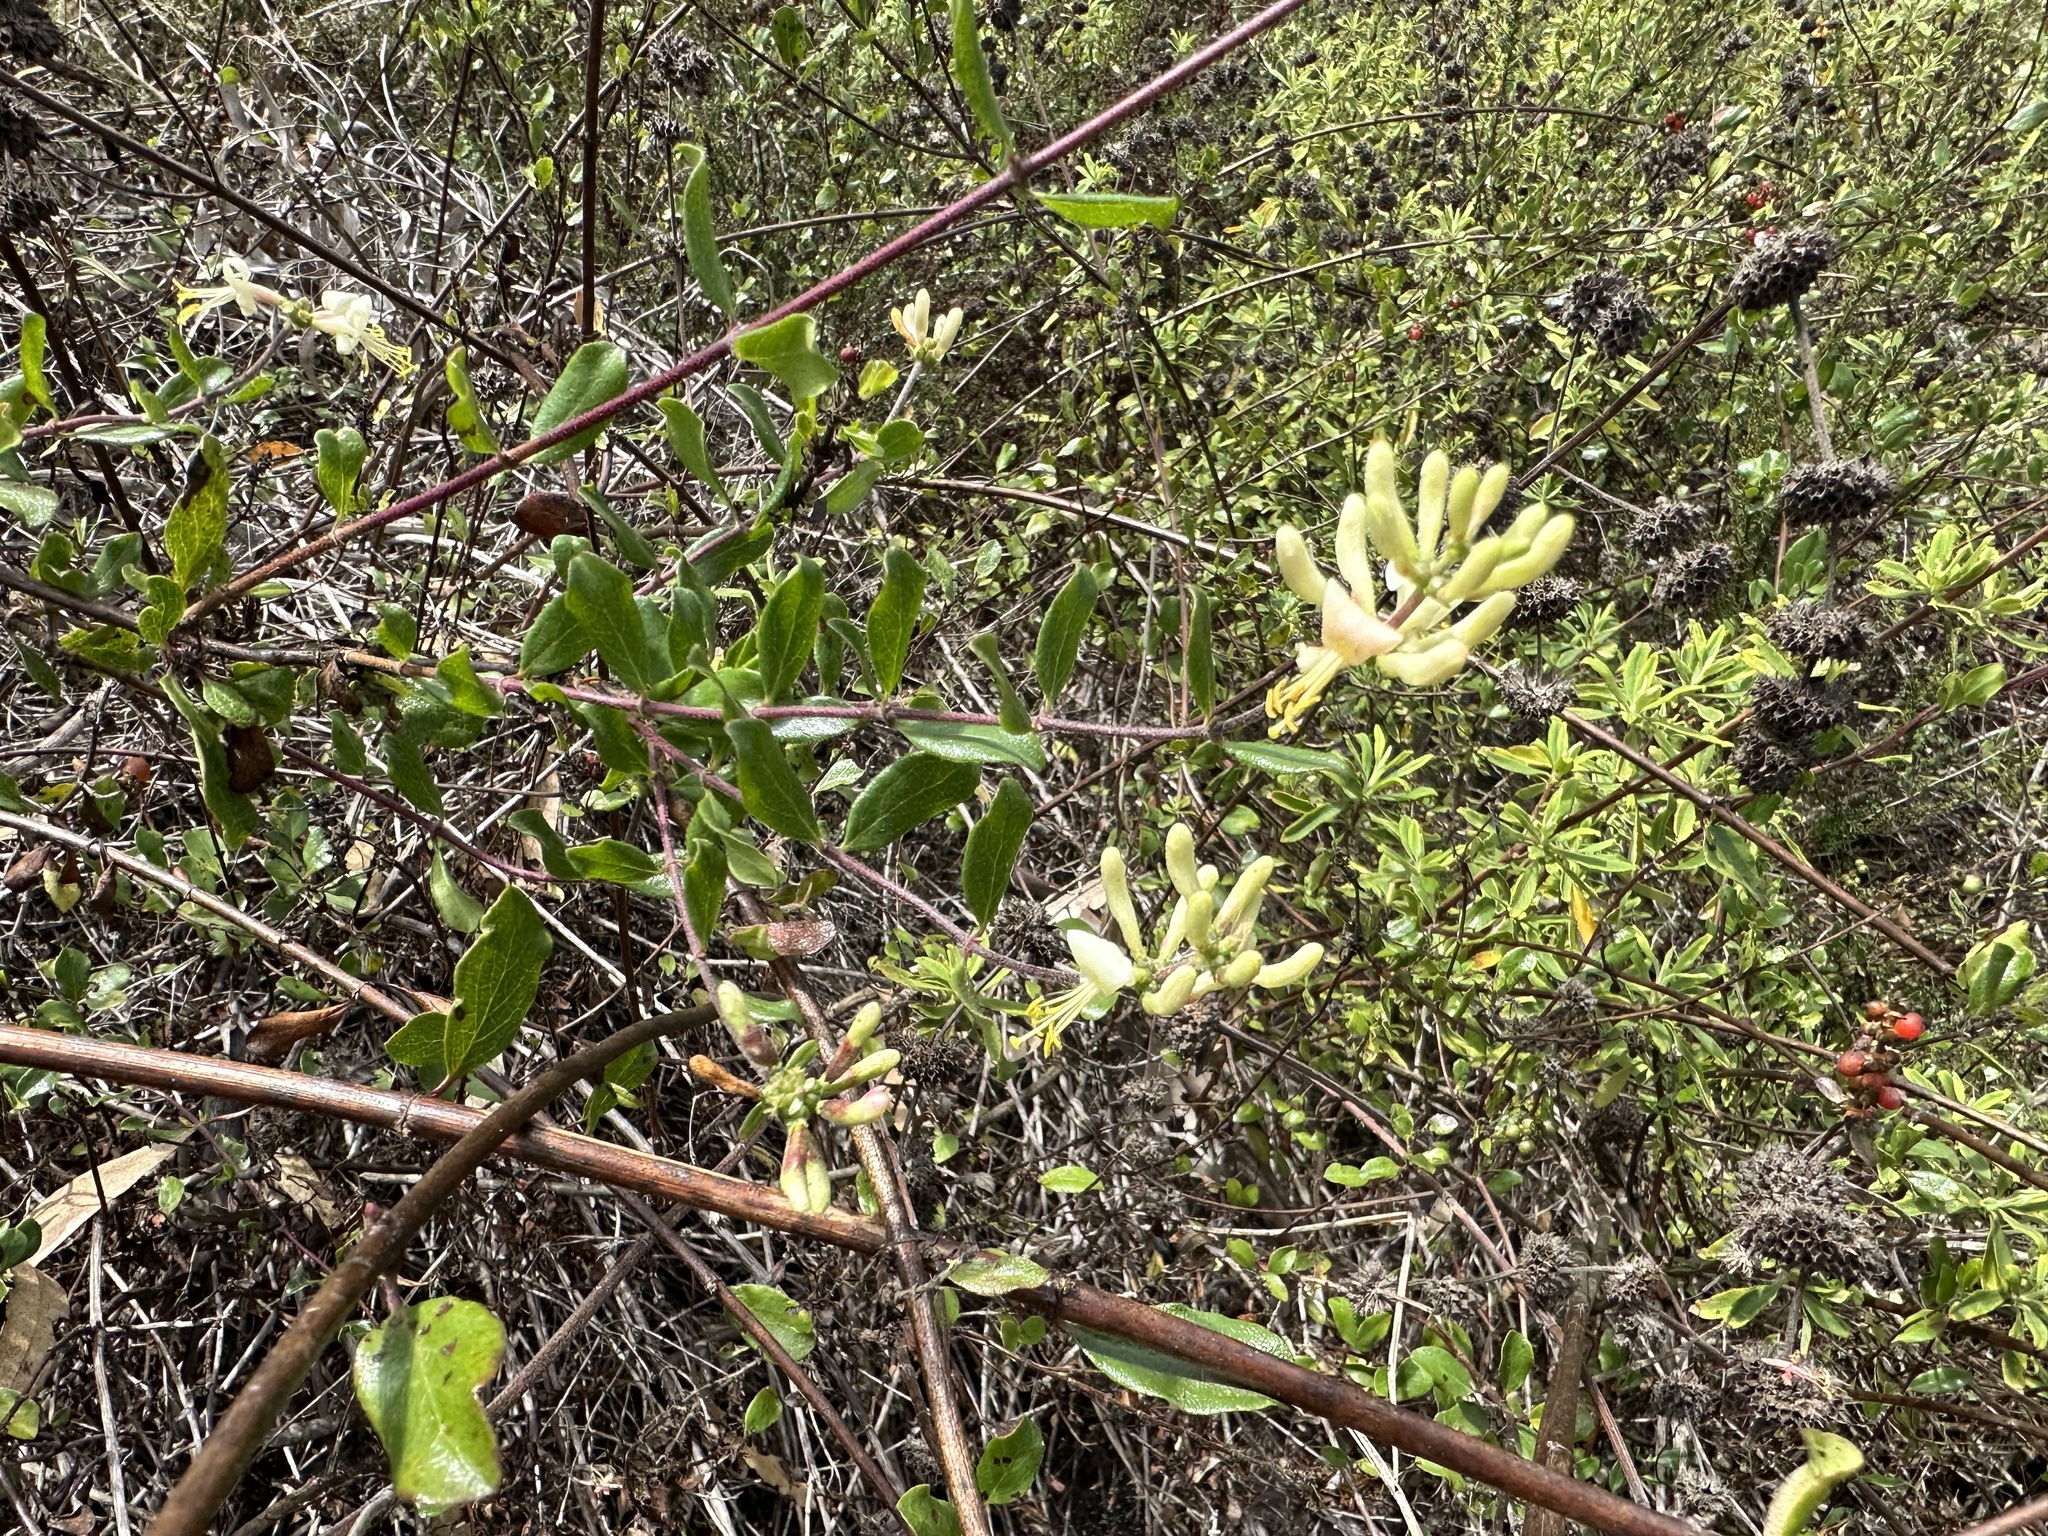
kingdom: Plantae
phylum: Tracheophyta
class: Magnoliopsida
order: Dipsacales
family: Caprifoliaceae
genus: Lonicera
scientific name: Lonicera subspicata
